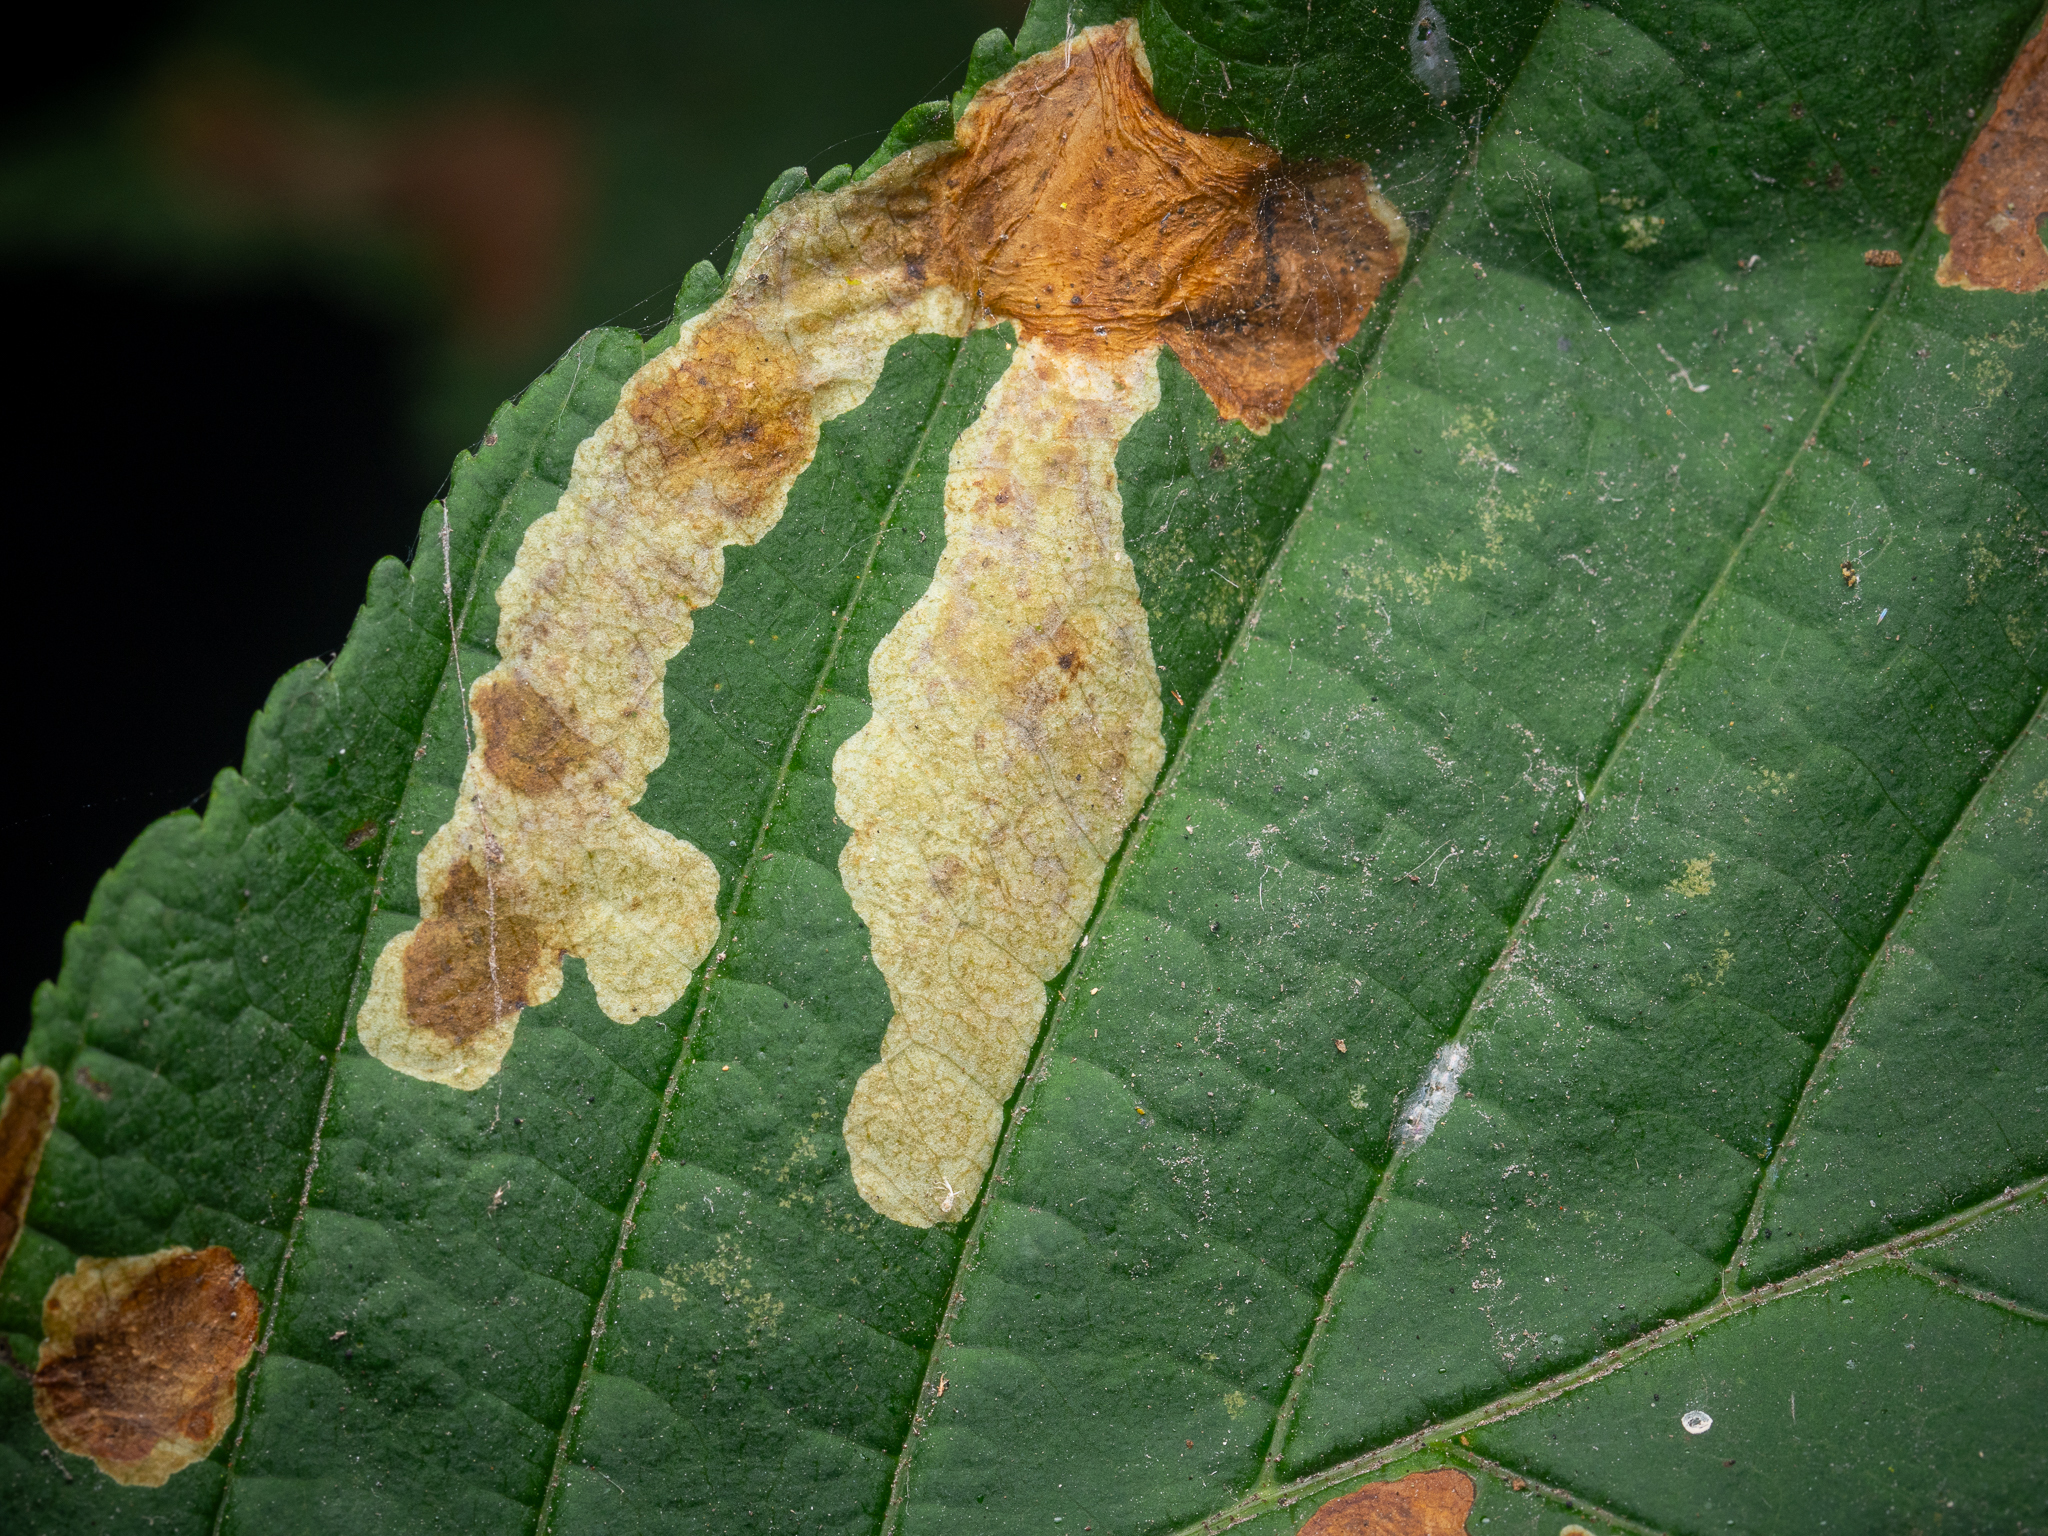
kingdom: Animalia
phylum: Arthropoda
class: Insecta
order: Lepidoptera
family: Gracillariidae
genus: Cameraria
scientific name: Cameraria ohridella
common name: Horse-chestnut leaf-miner
